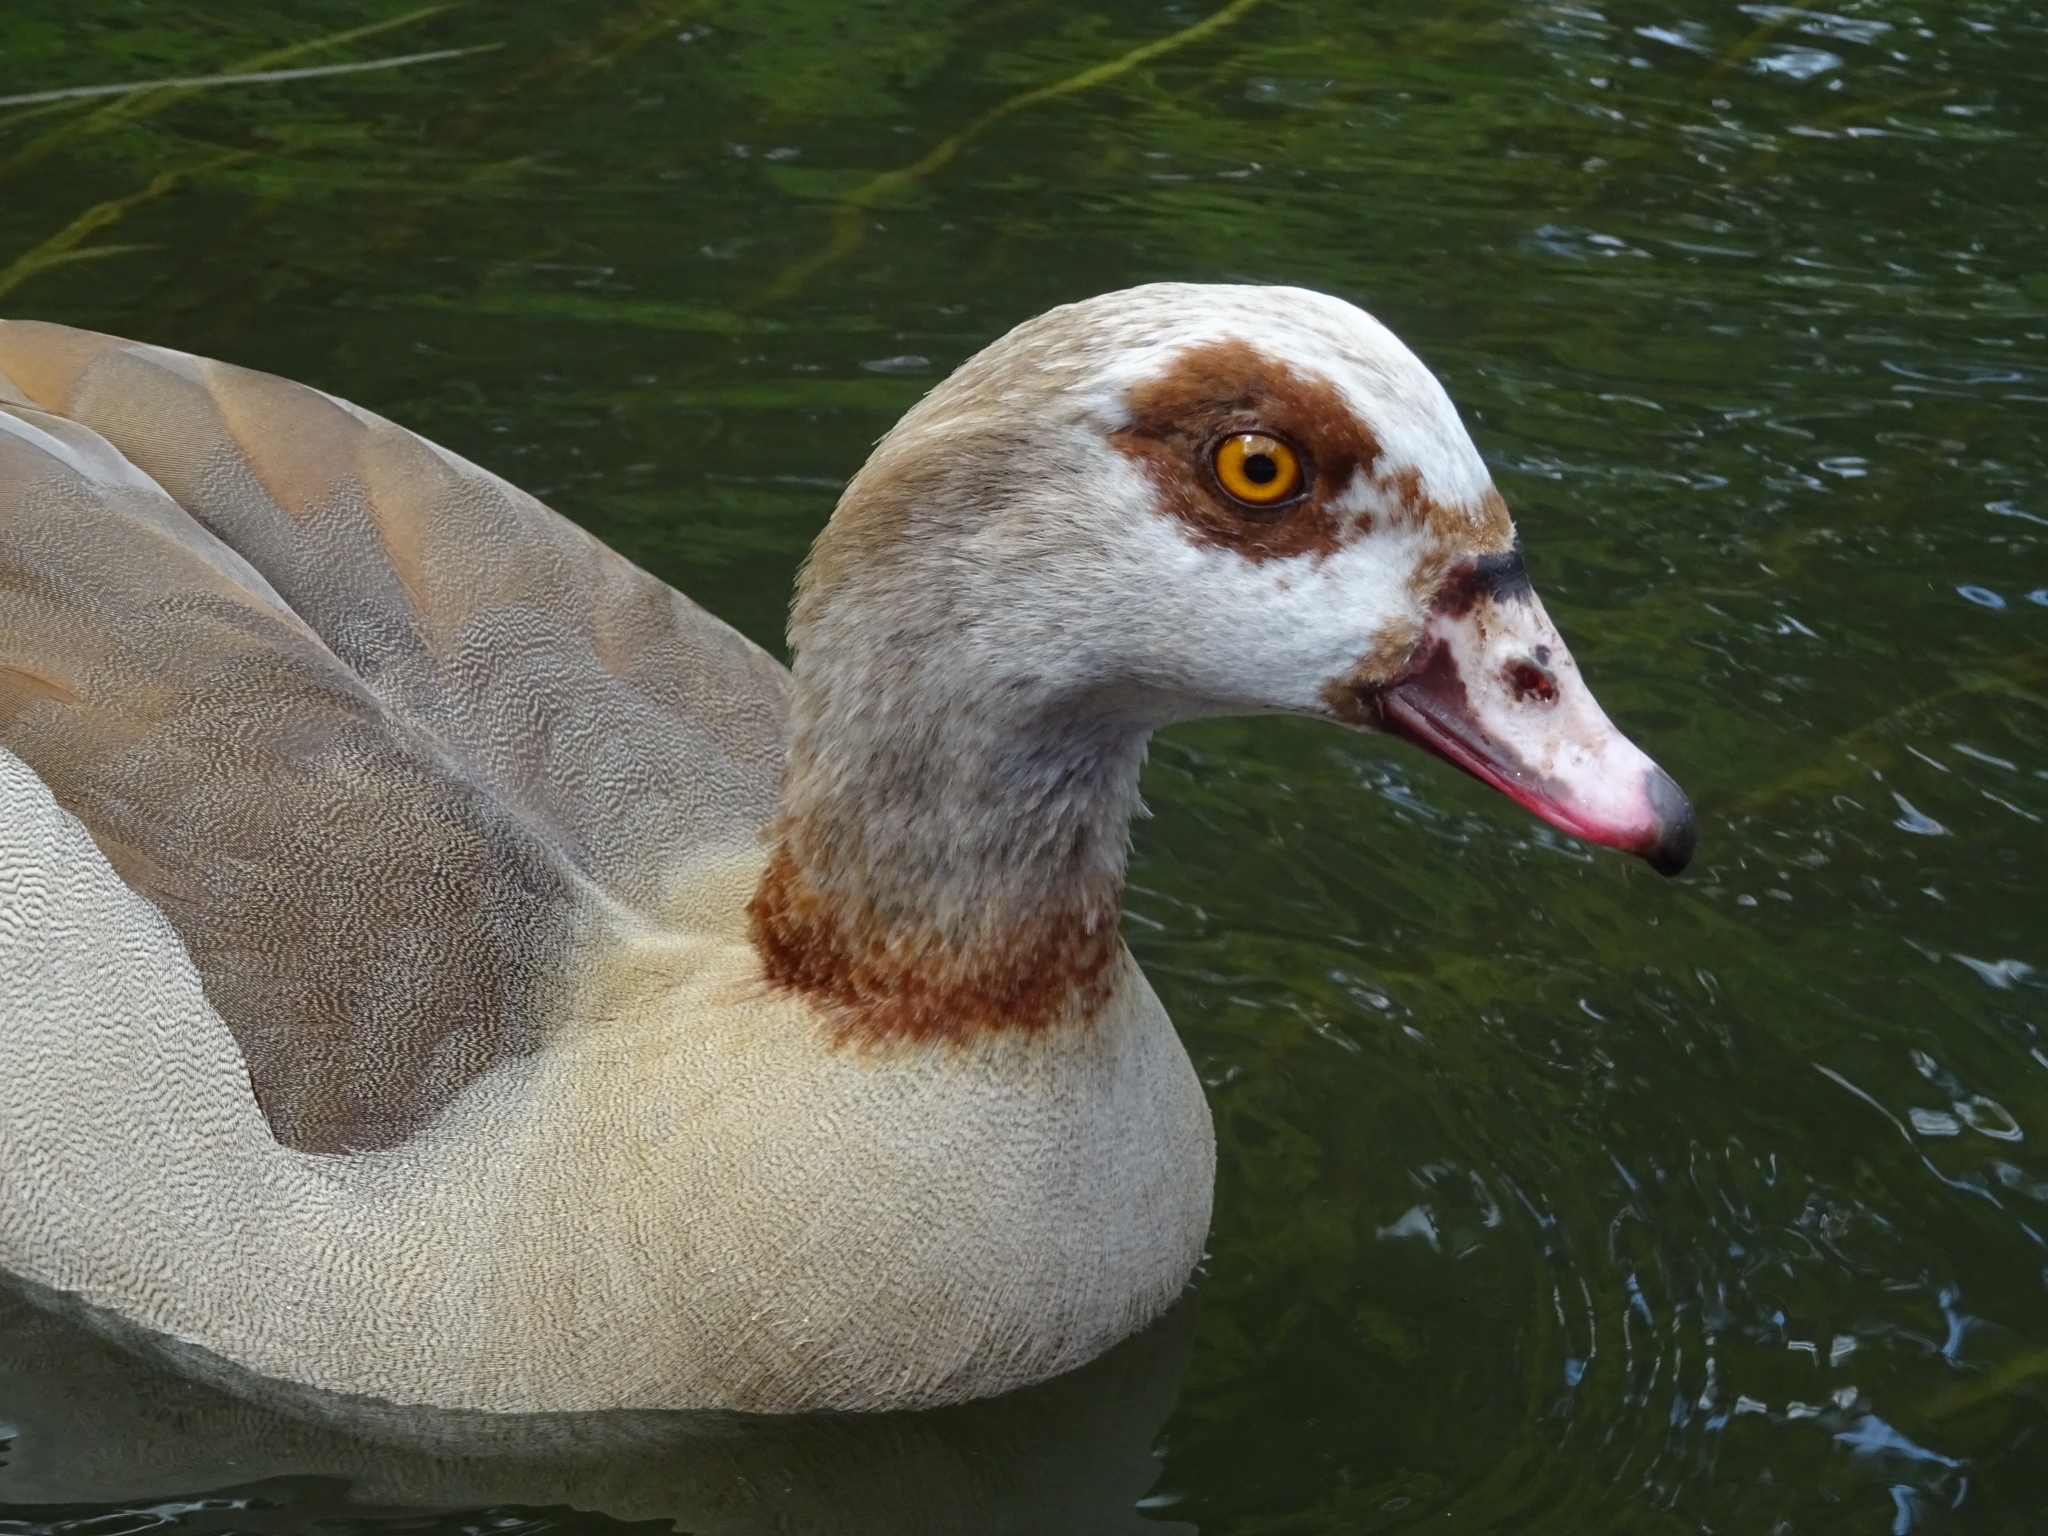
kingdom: Animalia
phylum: Chordata
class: Aves
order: Anseriformes
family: Anatidae
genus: Alopochen
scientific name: Alopochen aegyptiaca
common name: Egyptian goose
